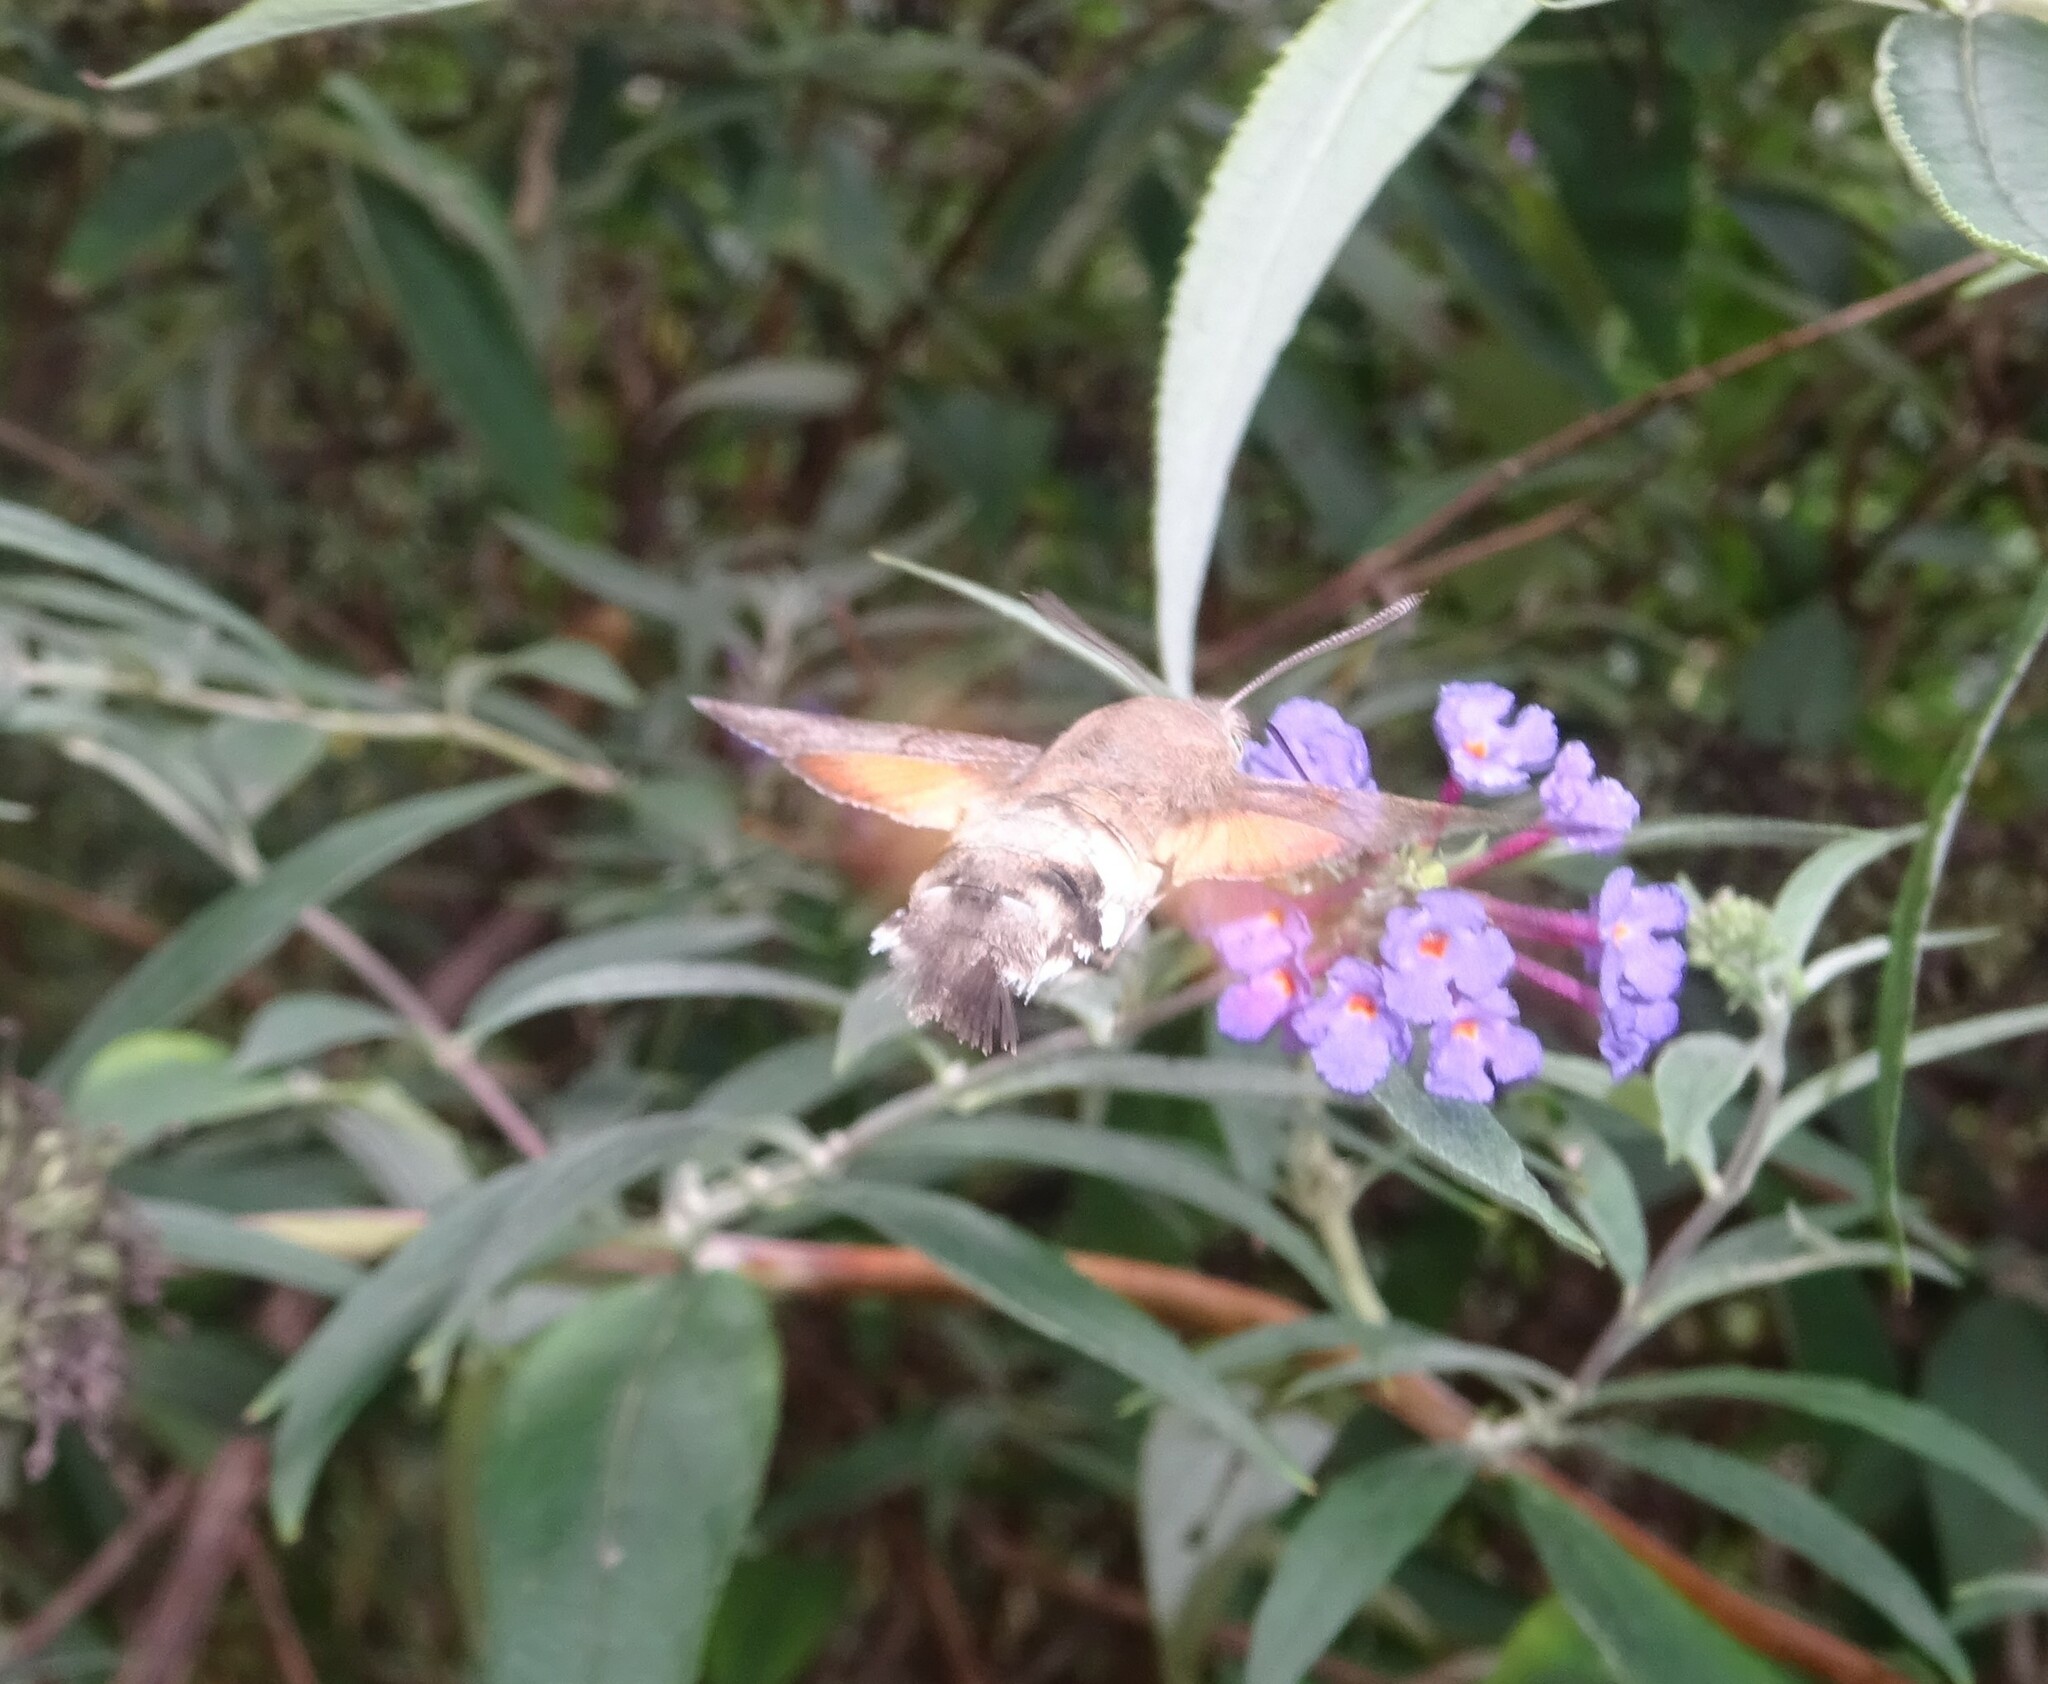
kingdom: Animalia
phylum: Arthropoda
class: Insecta
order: Lepidoptera
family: Sphingidae
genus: Macroglossum
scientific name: Macroglossum stellatarum
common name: Humming-bird hawk-moth
